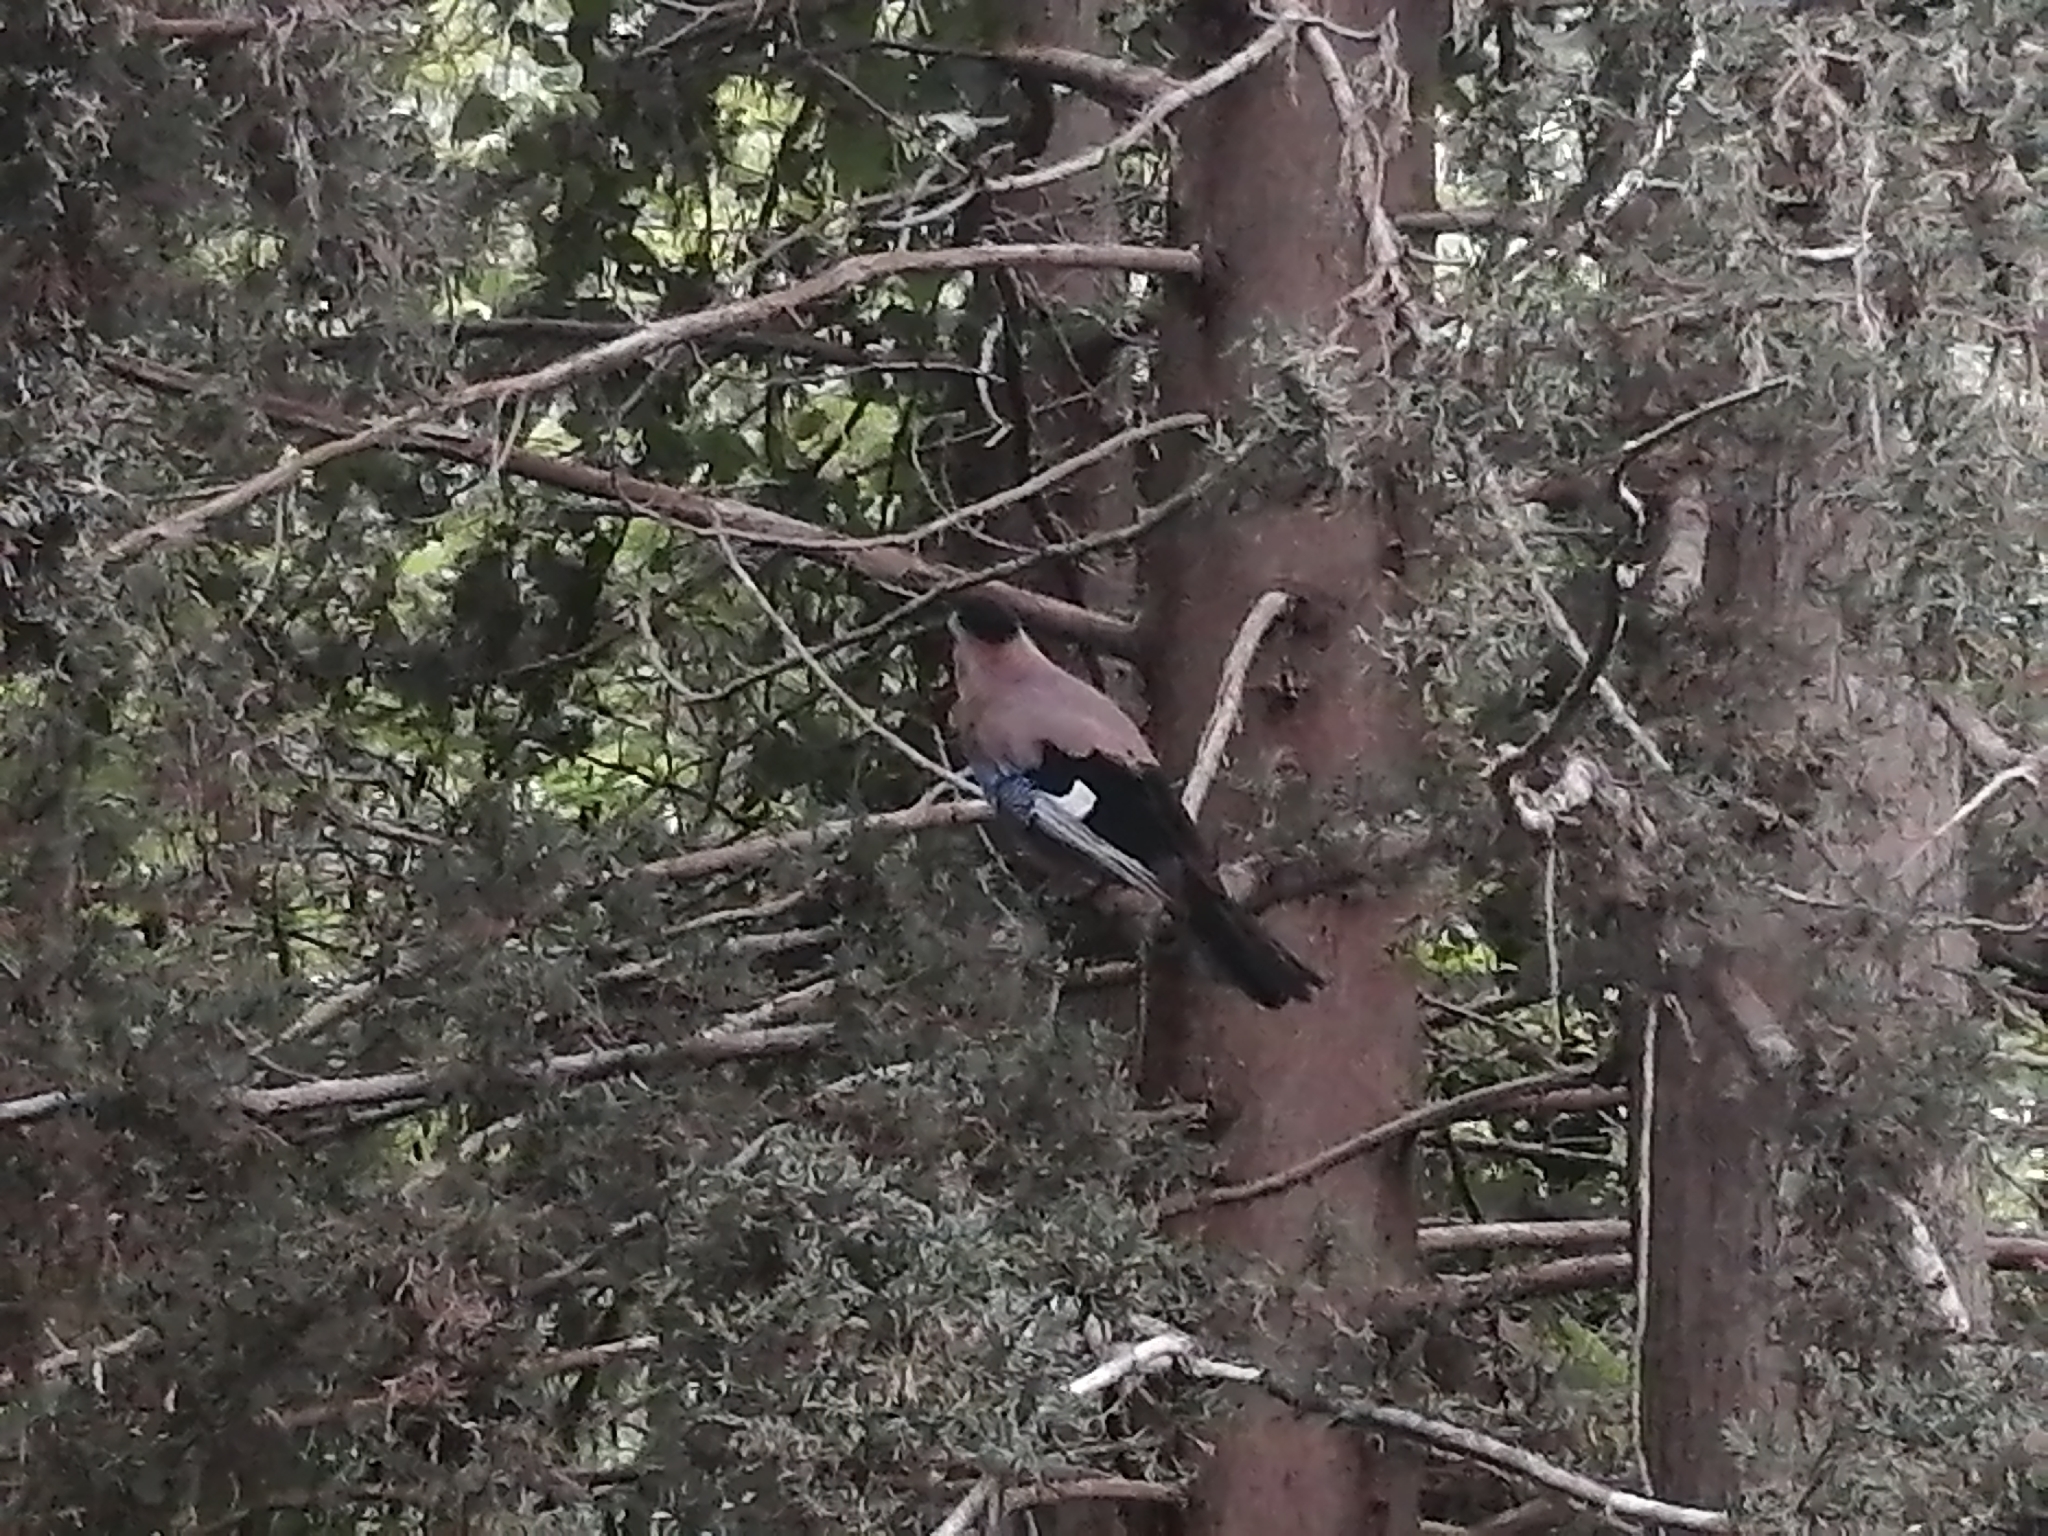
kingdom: Animalia
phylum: Chordata
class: Aves
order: Passeriformes
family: Corvidae
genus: Garrulus
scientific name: Garrulus glandarius
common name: Eurasian jay
